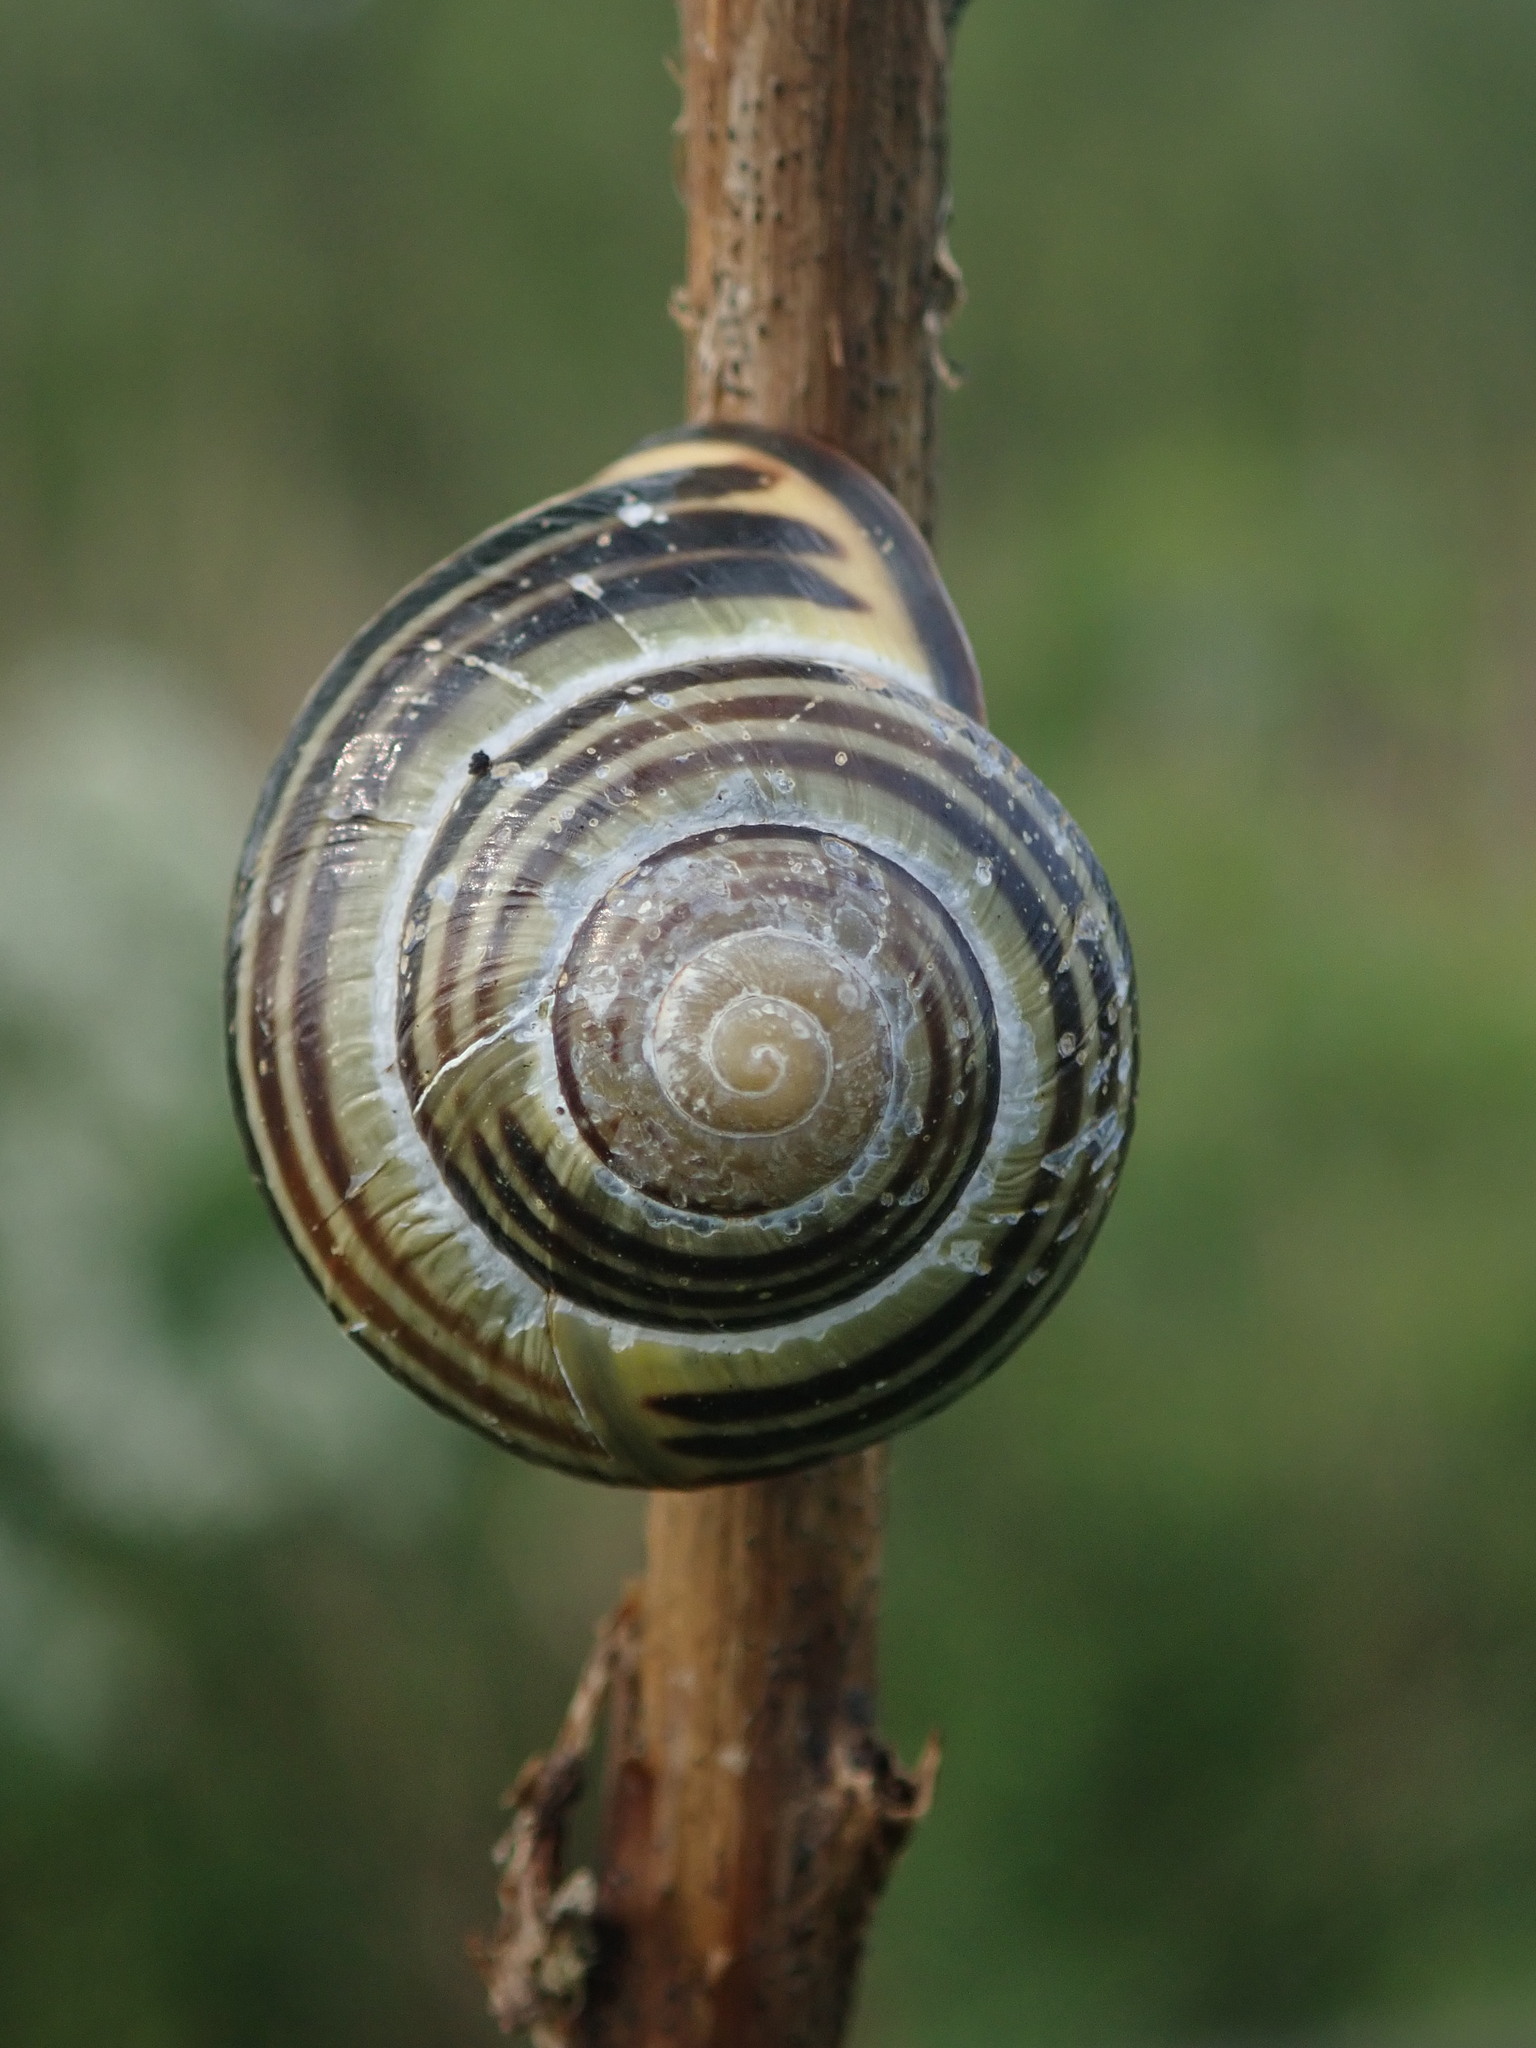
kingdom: Animalia
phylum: Mollusca
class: Gastropoda
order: Stylommatophora
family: Helicidae
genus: Cepaea
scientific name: Cepaea nemoralis
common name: Grovesnail
